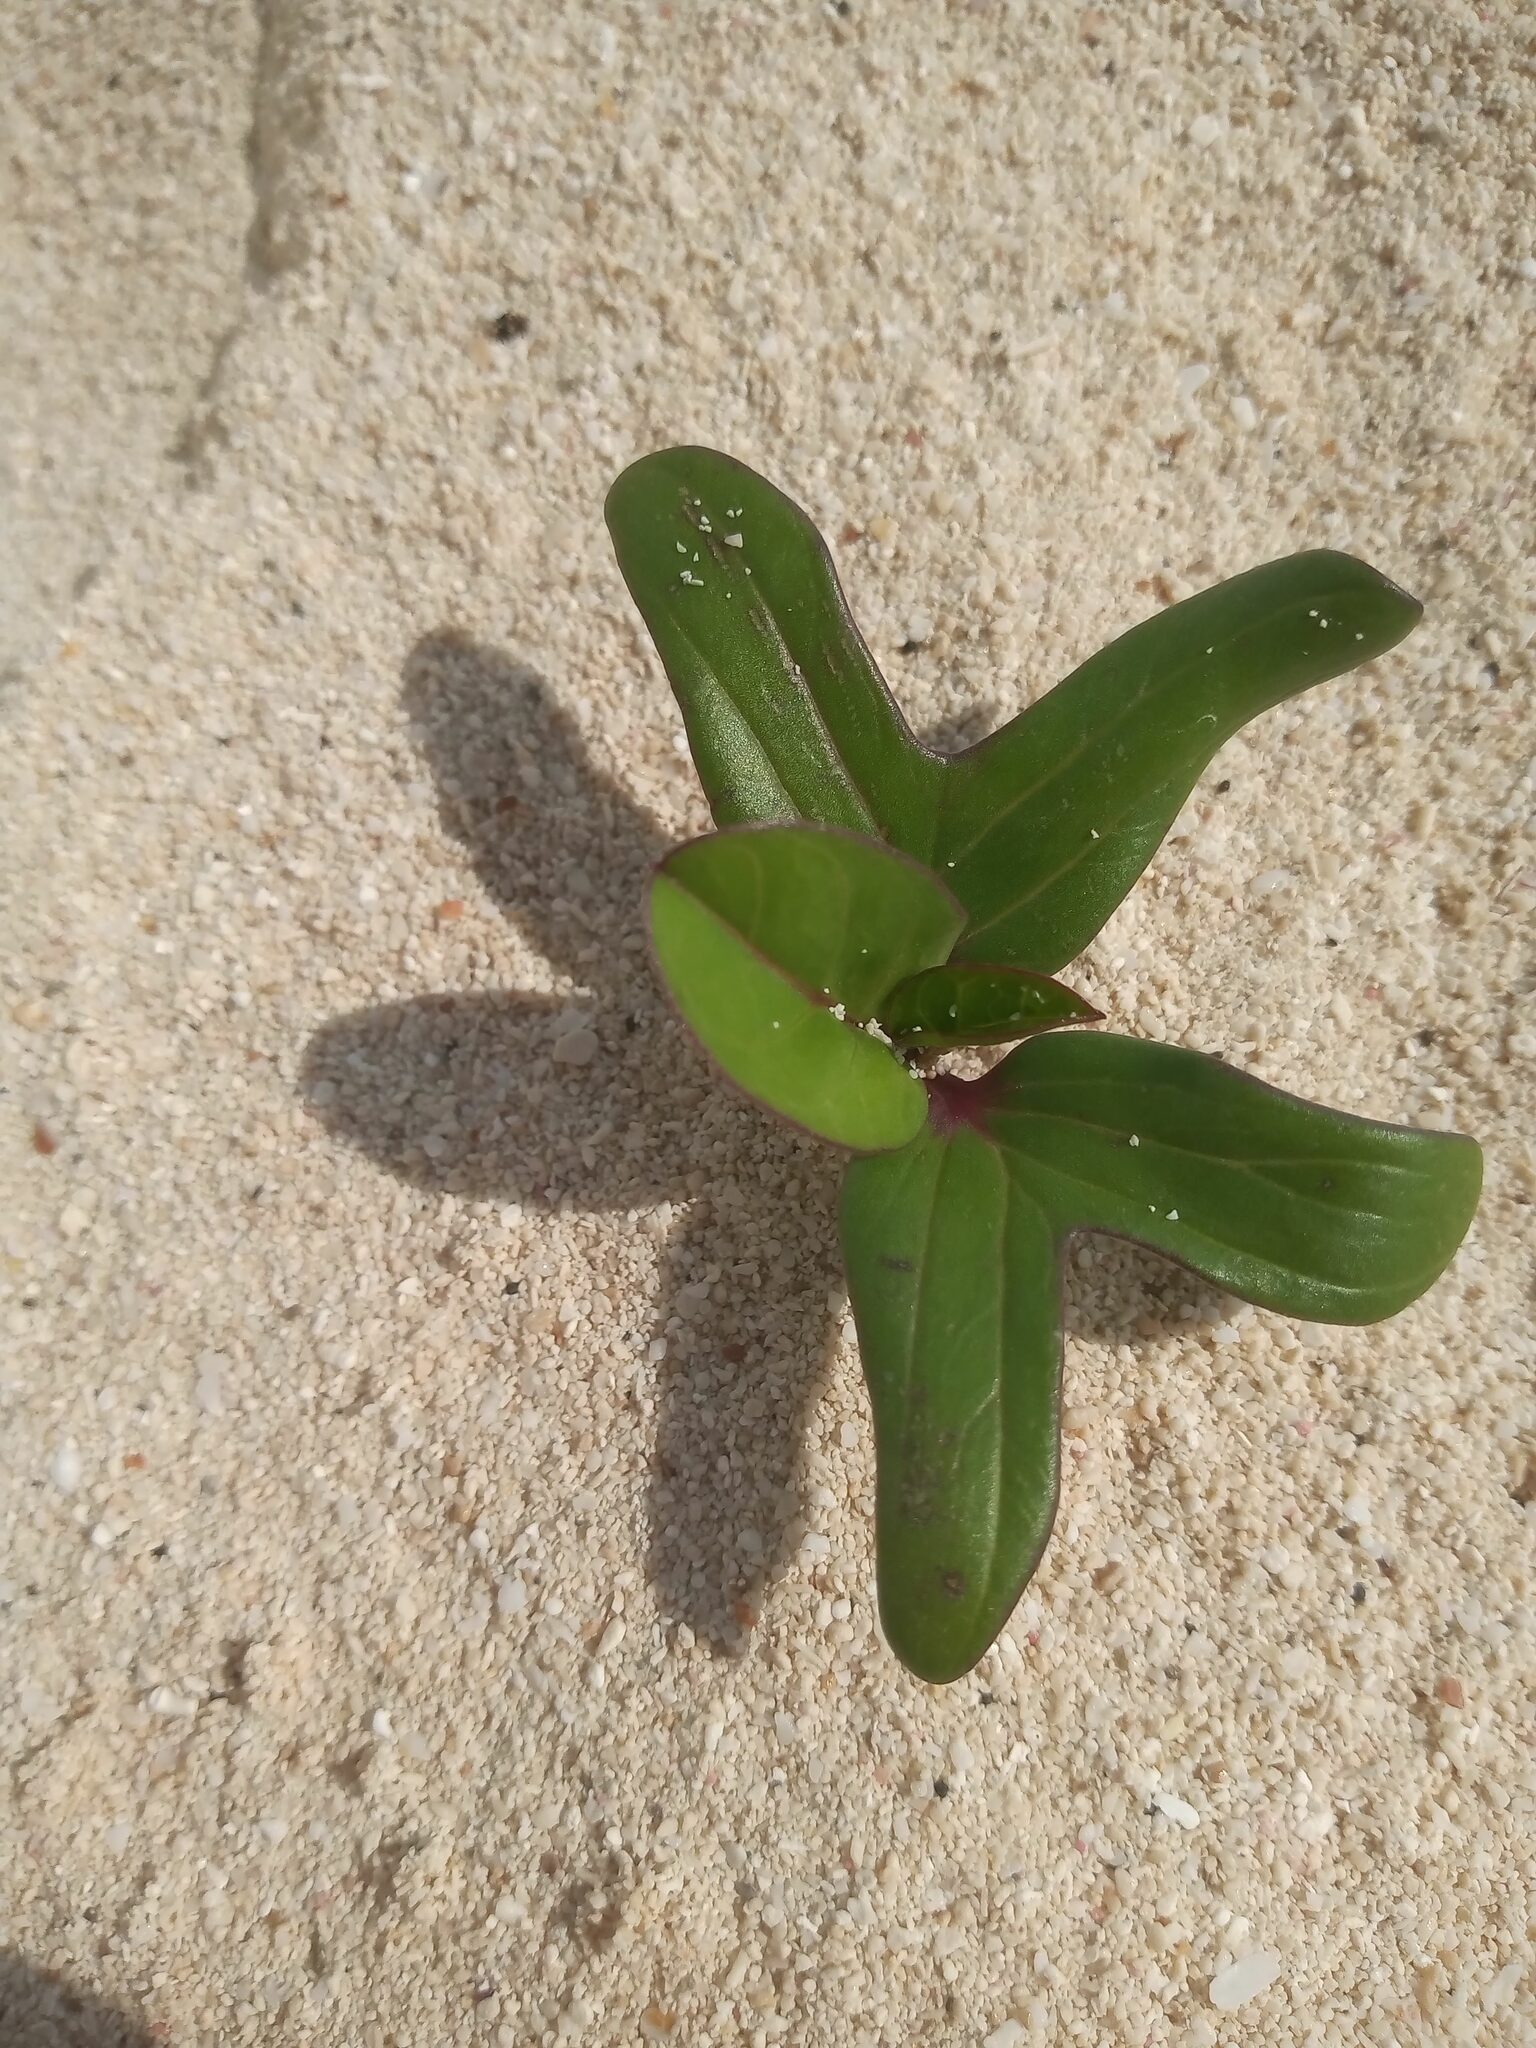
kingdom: Plantae
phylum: Tracheophyta
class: Magnoliopsida
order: Solanales
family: Convolvulaceae
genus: Ipomoea
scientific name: Ipomoea pes-caprae
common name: Beach morning glory
